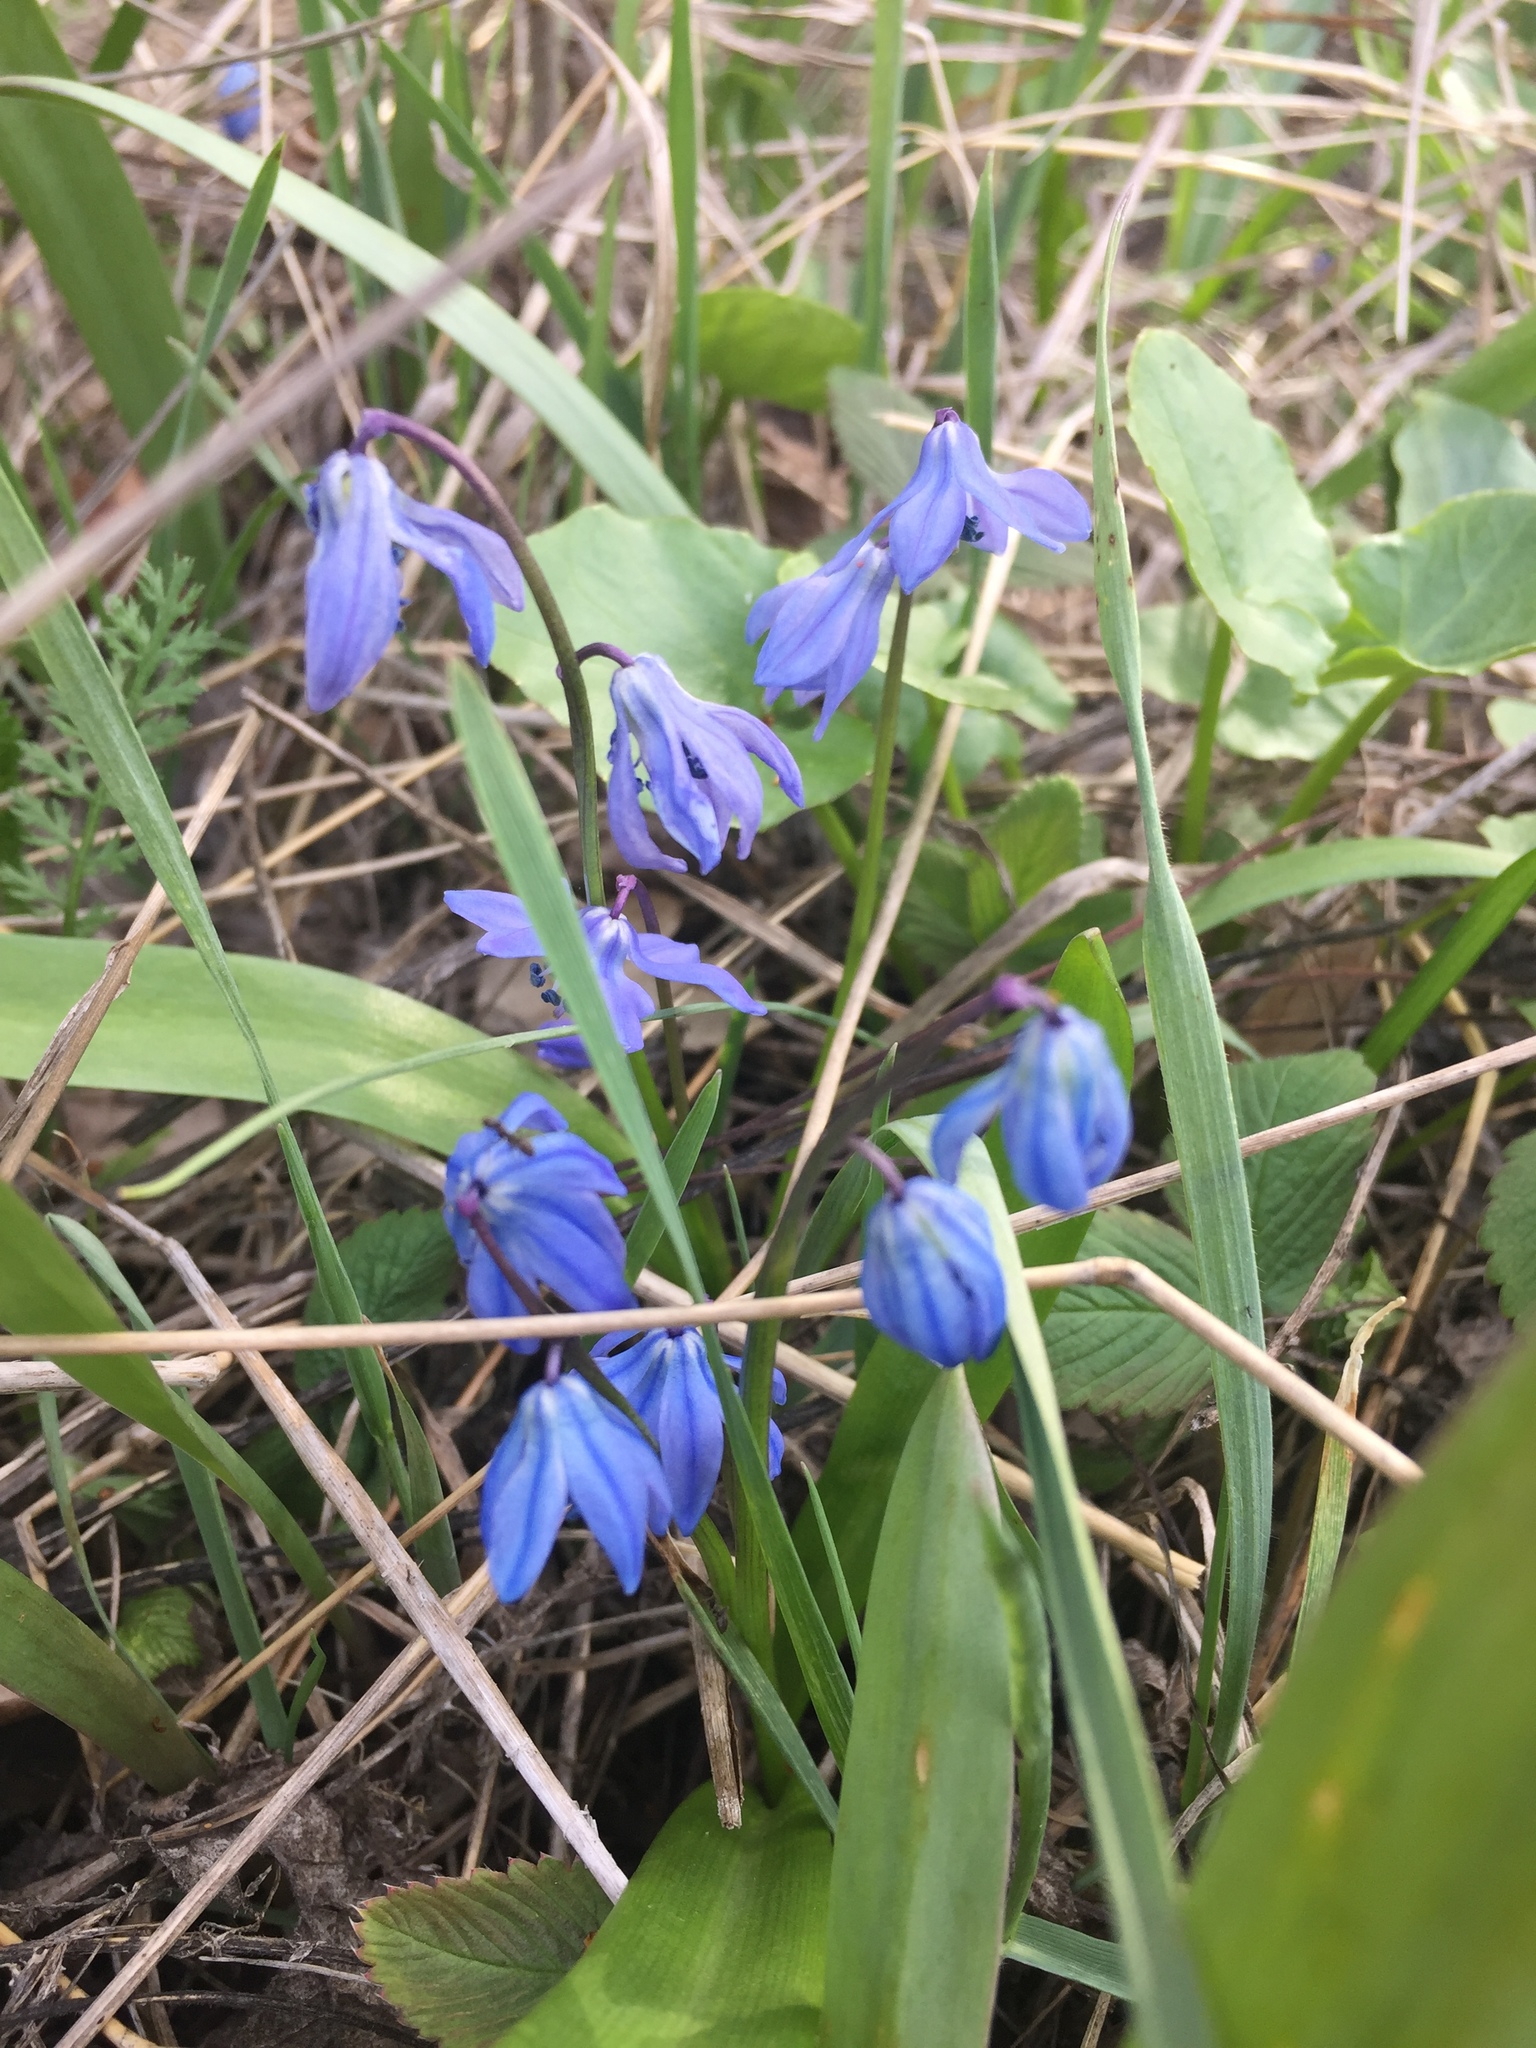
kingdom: Plantae
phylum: Tracheophyta
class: Liliopsida
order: Asparagales
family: Asparagaceae
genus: Scilla
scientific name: Scilla siberica
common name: Siberian squill
